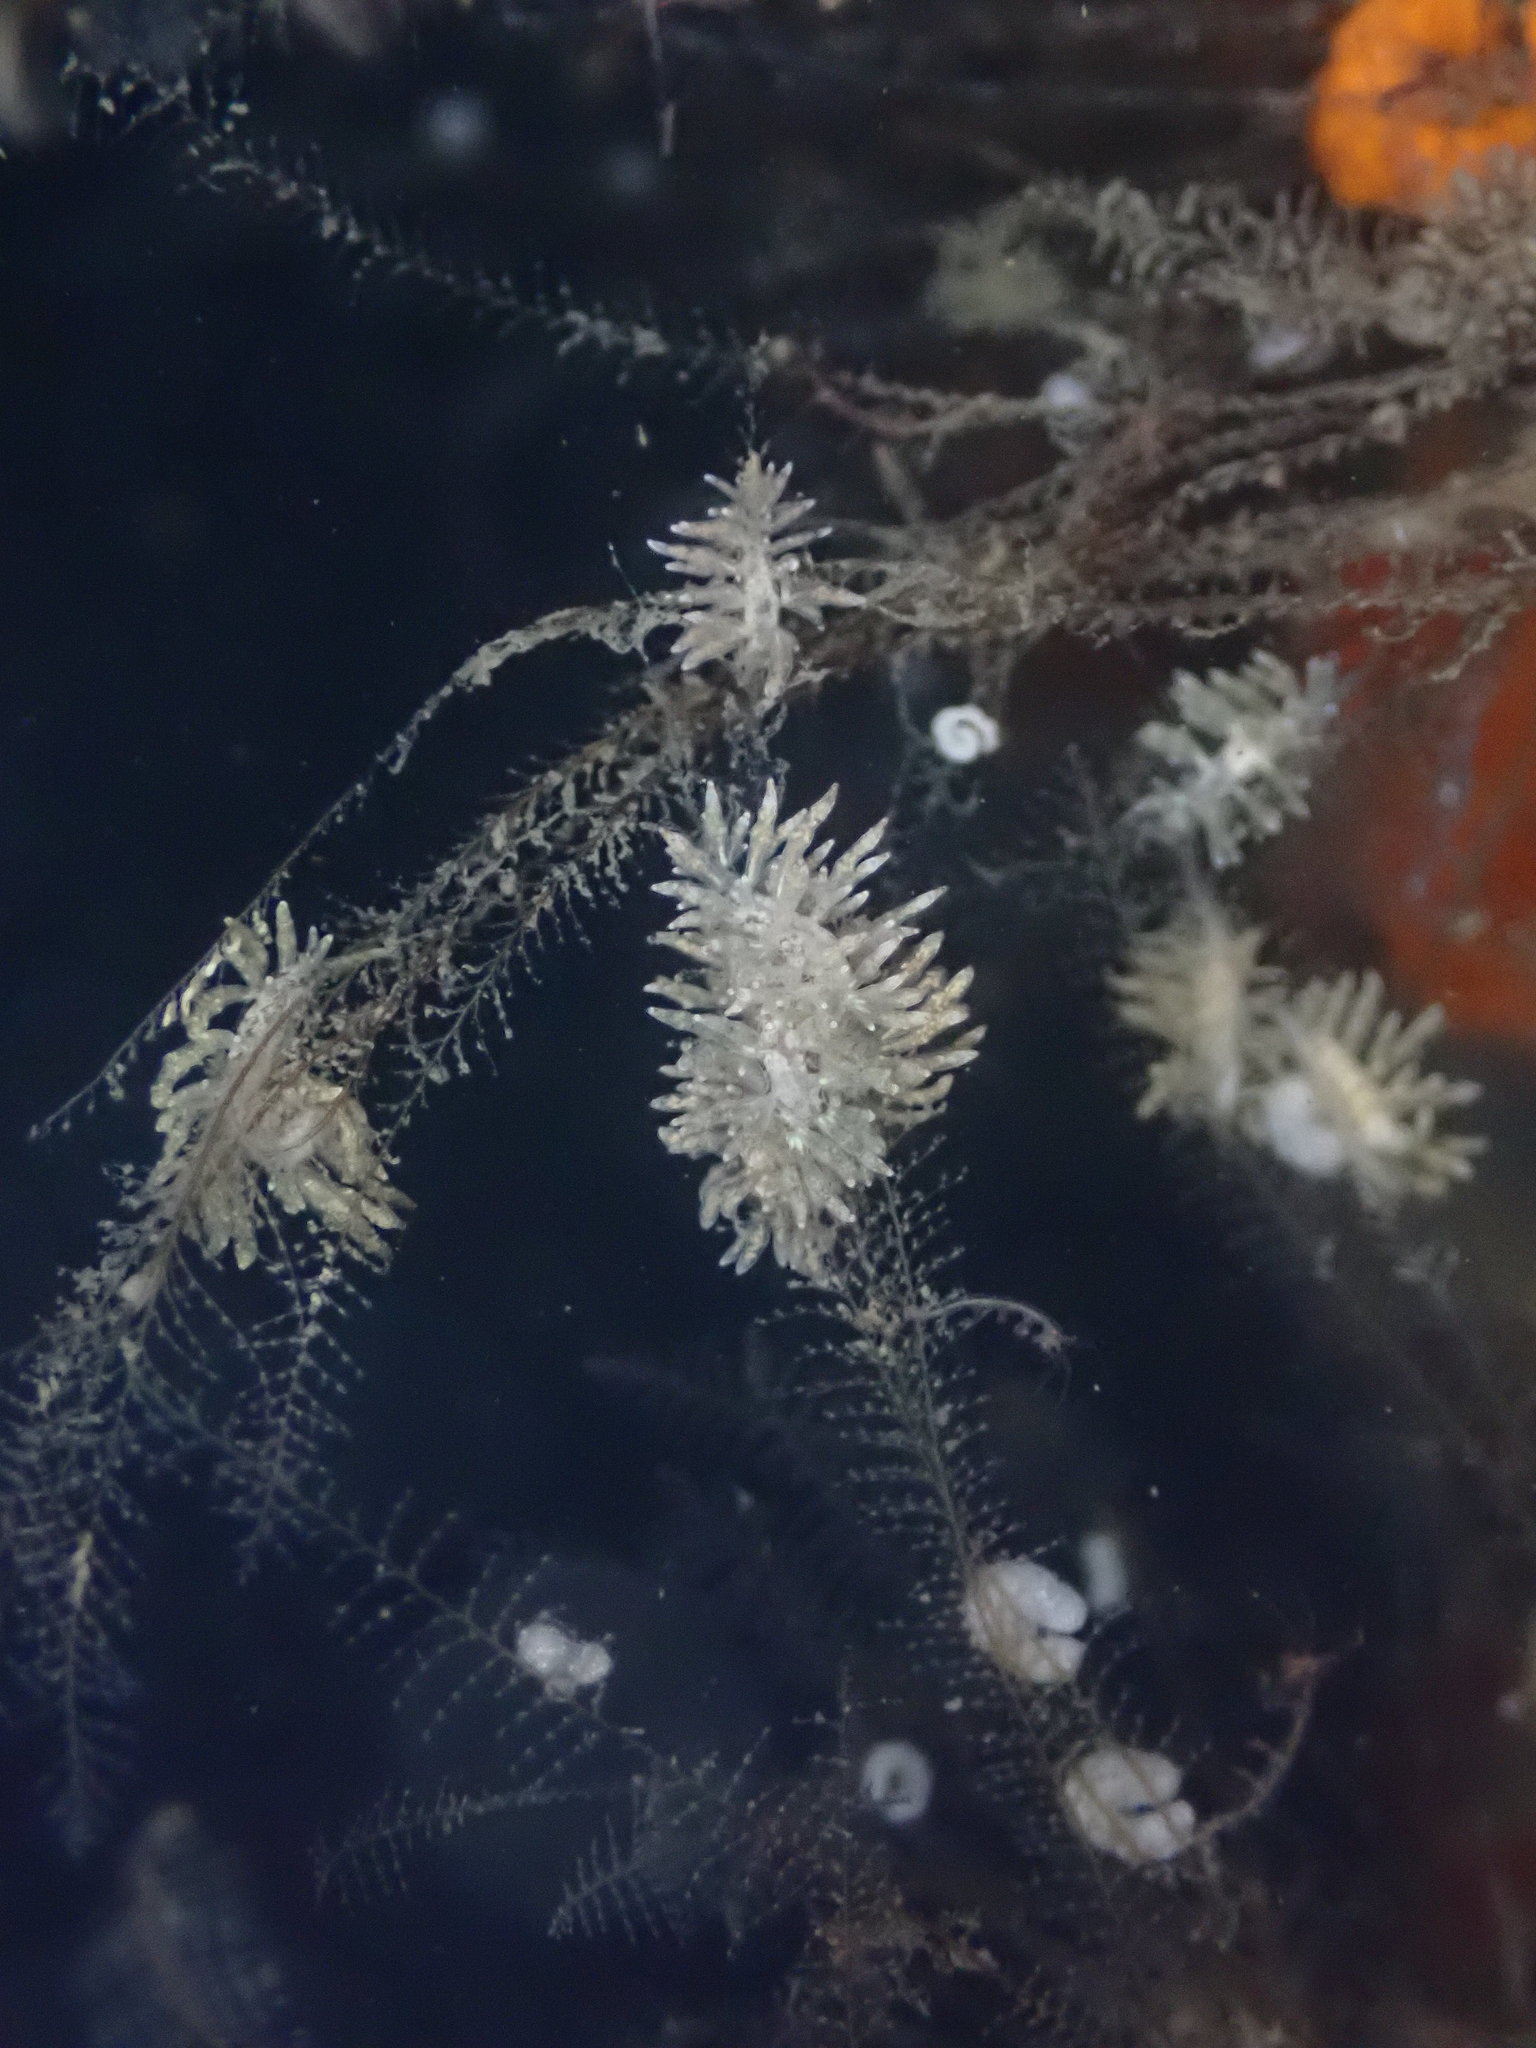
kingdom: Animalia
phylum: Mollusca
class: Gastropoda
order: Nudibranchia
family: Eubranchidae
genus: Eubranchus
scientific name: Eubranchus rustyus
